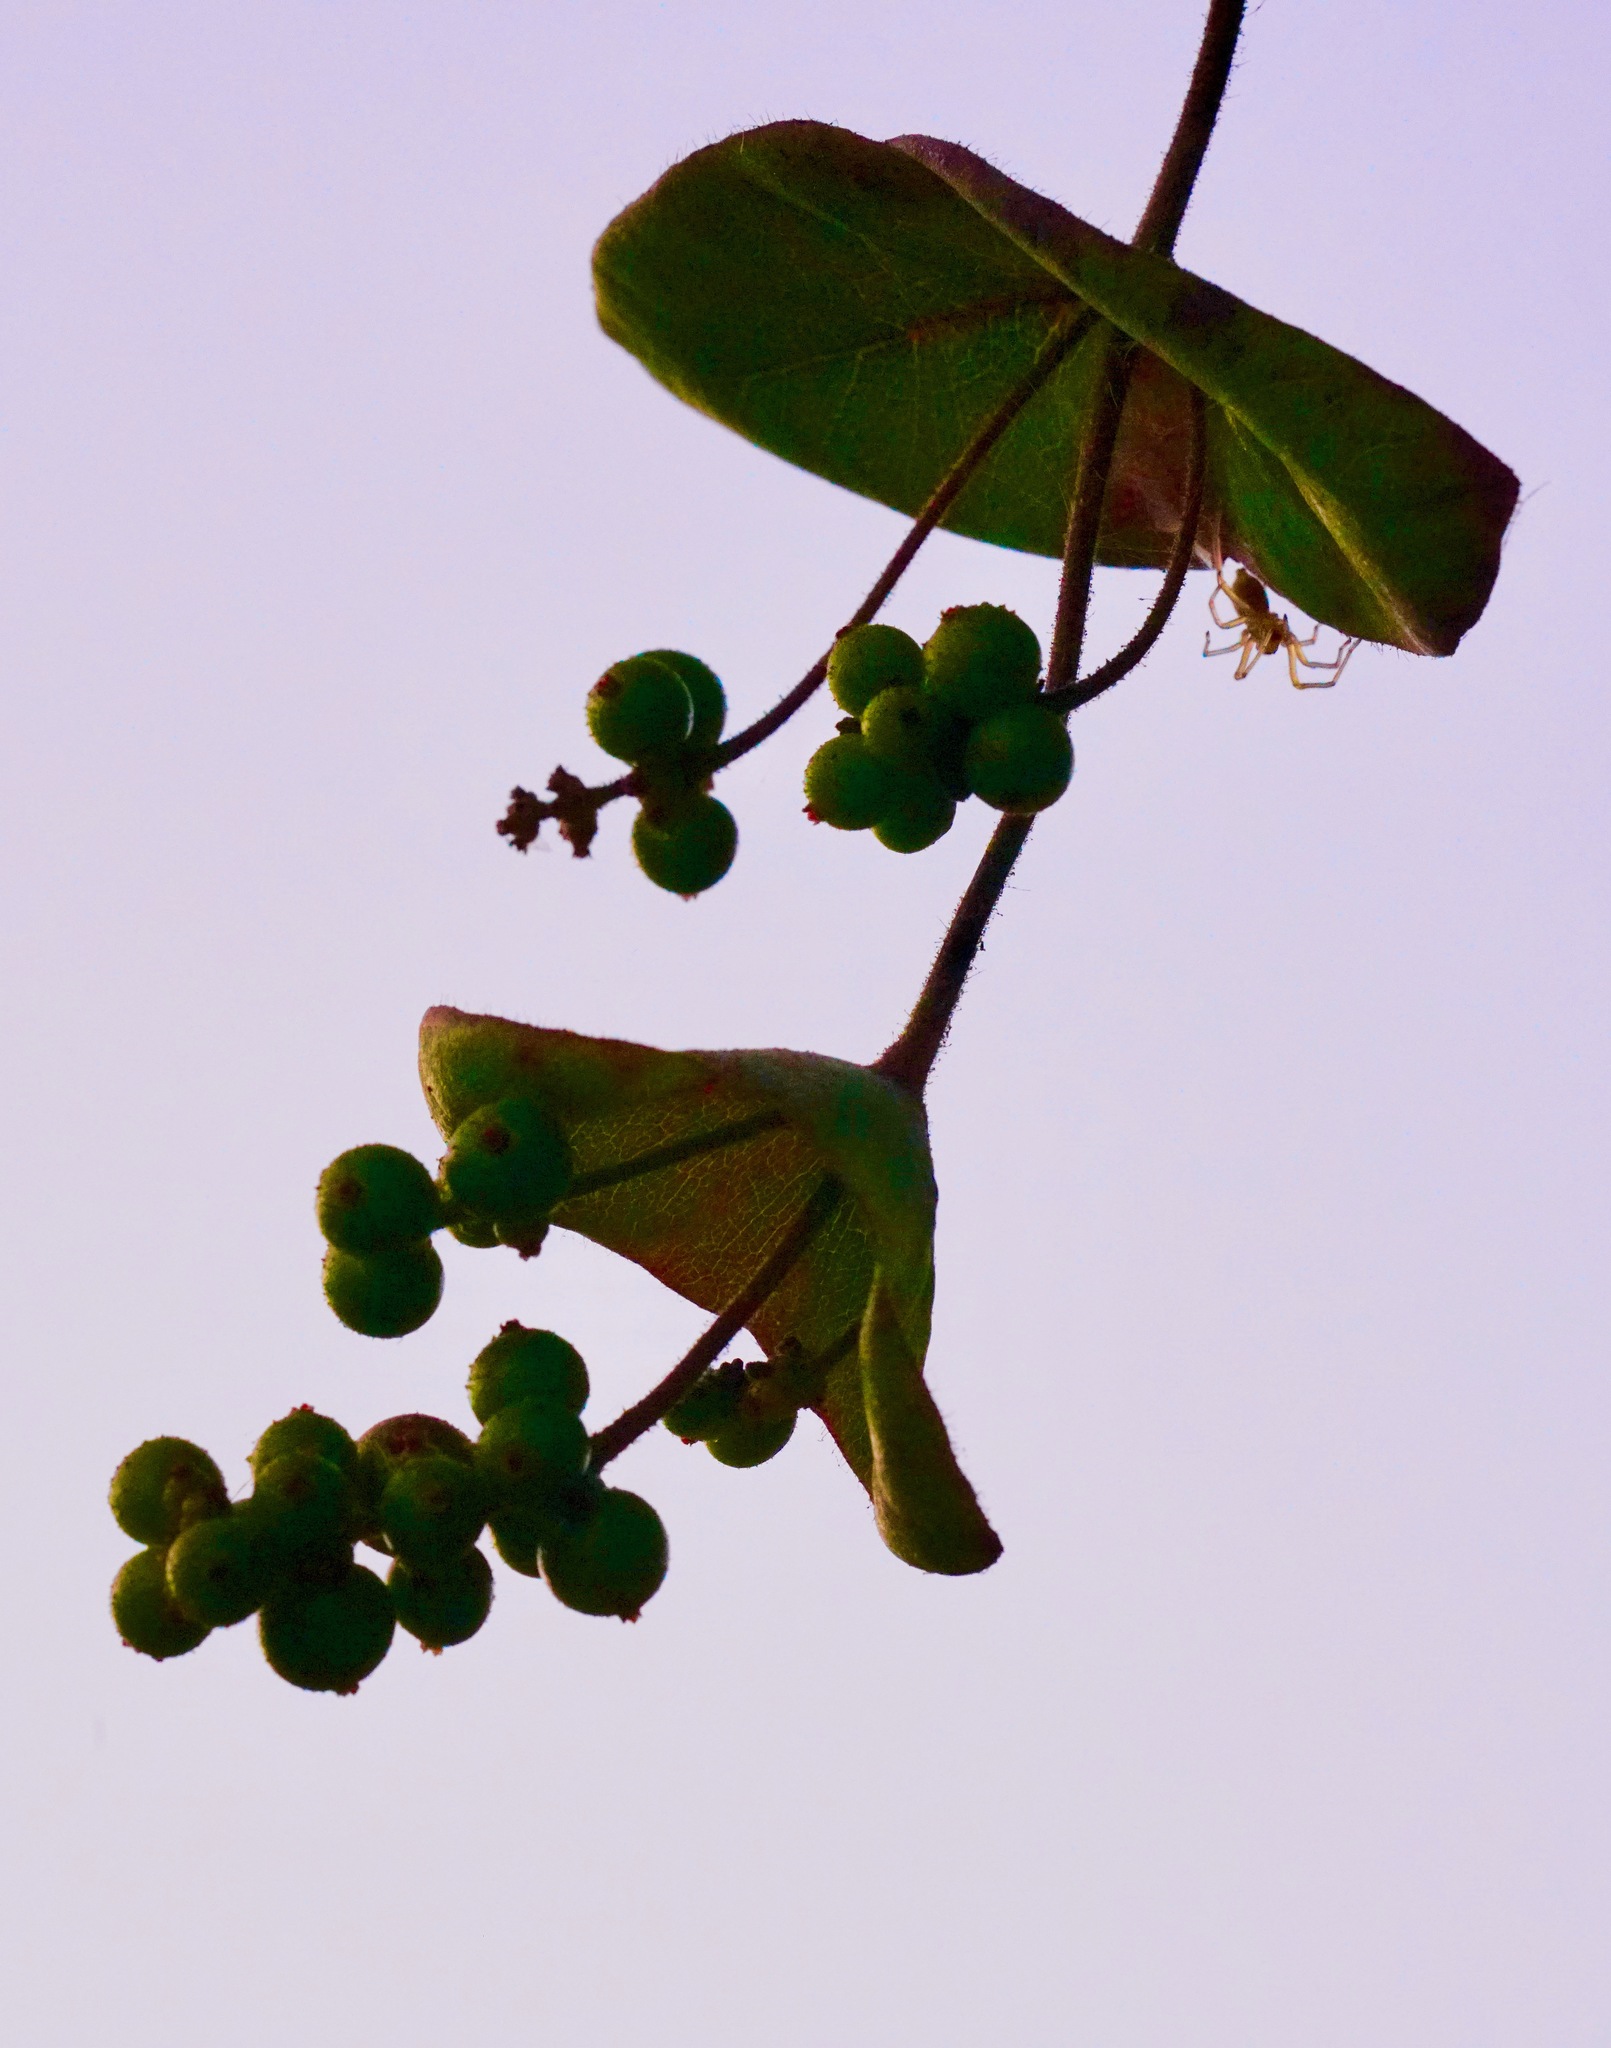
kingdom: Plantae
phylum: Tracheophyta
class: Magnoliopsida
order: Dipsacales
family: Caprifoliaceae
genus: Lonicera
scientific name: Lonicera hispidula
